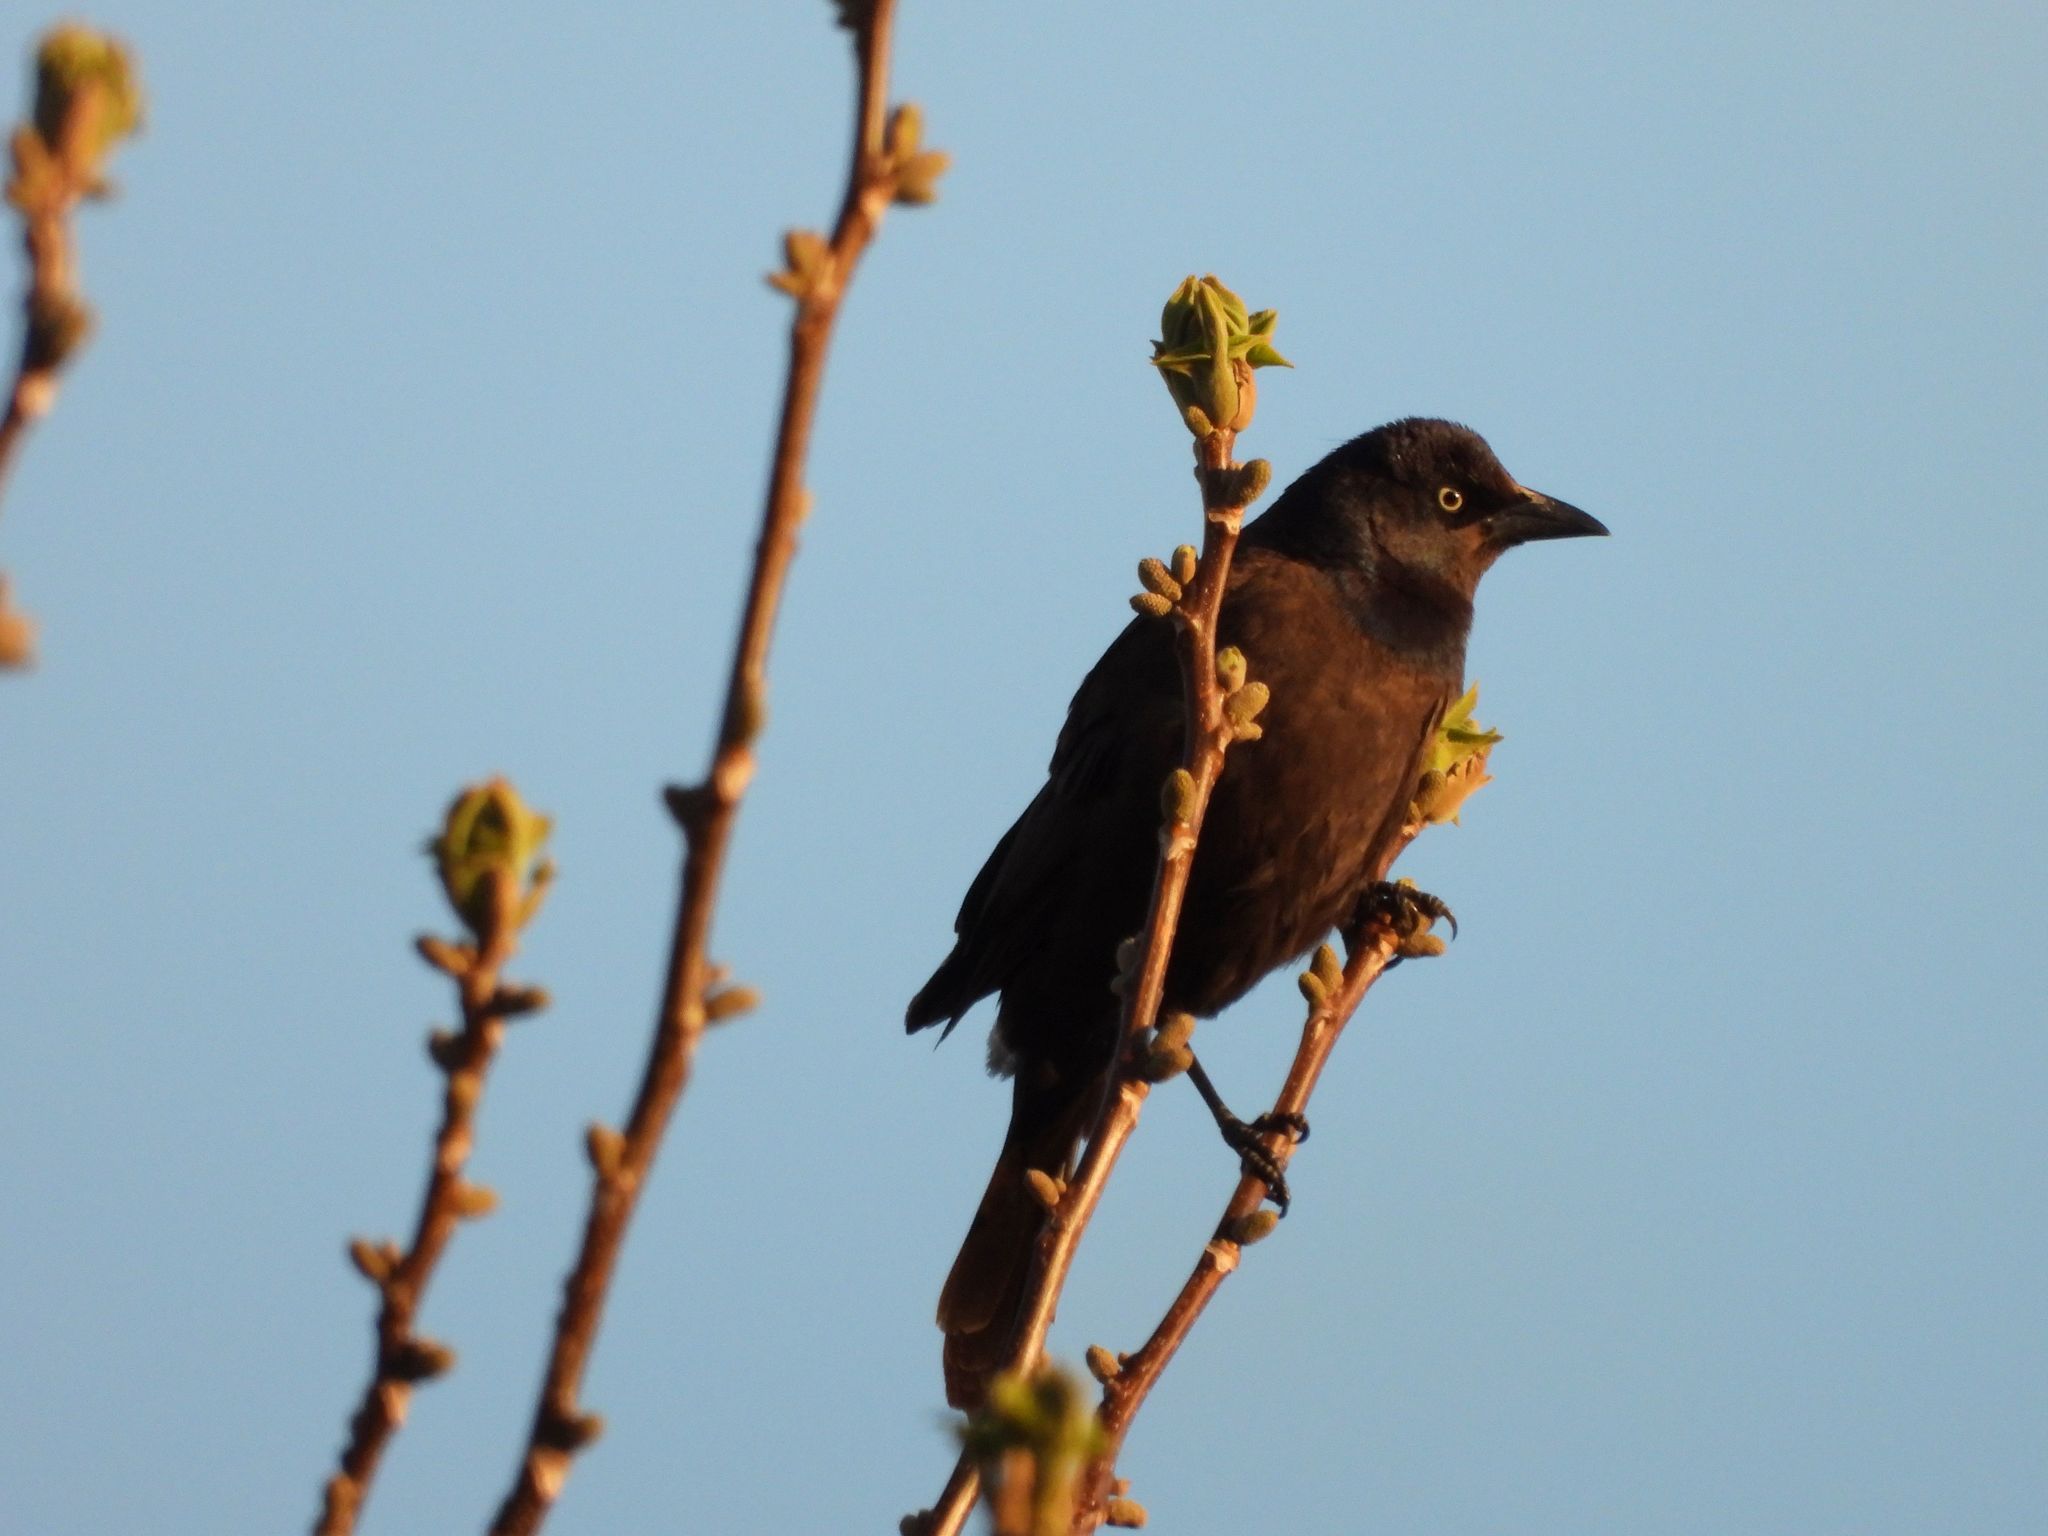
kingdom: Animalia
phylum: Chordata
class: Aves
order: Passeriformes
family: Icteridae
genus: Quiscalus
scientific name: Quiscalus quiscula
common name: Common grackle
